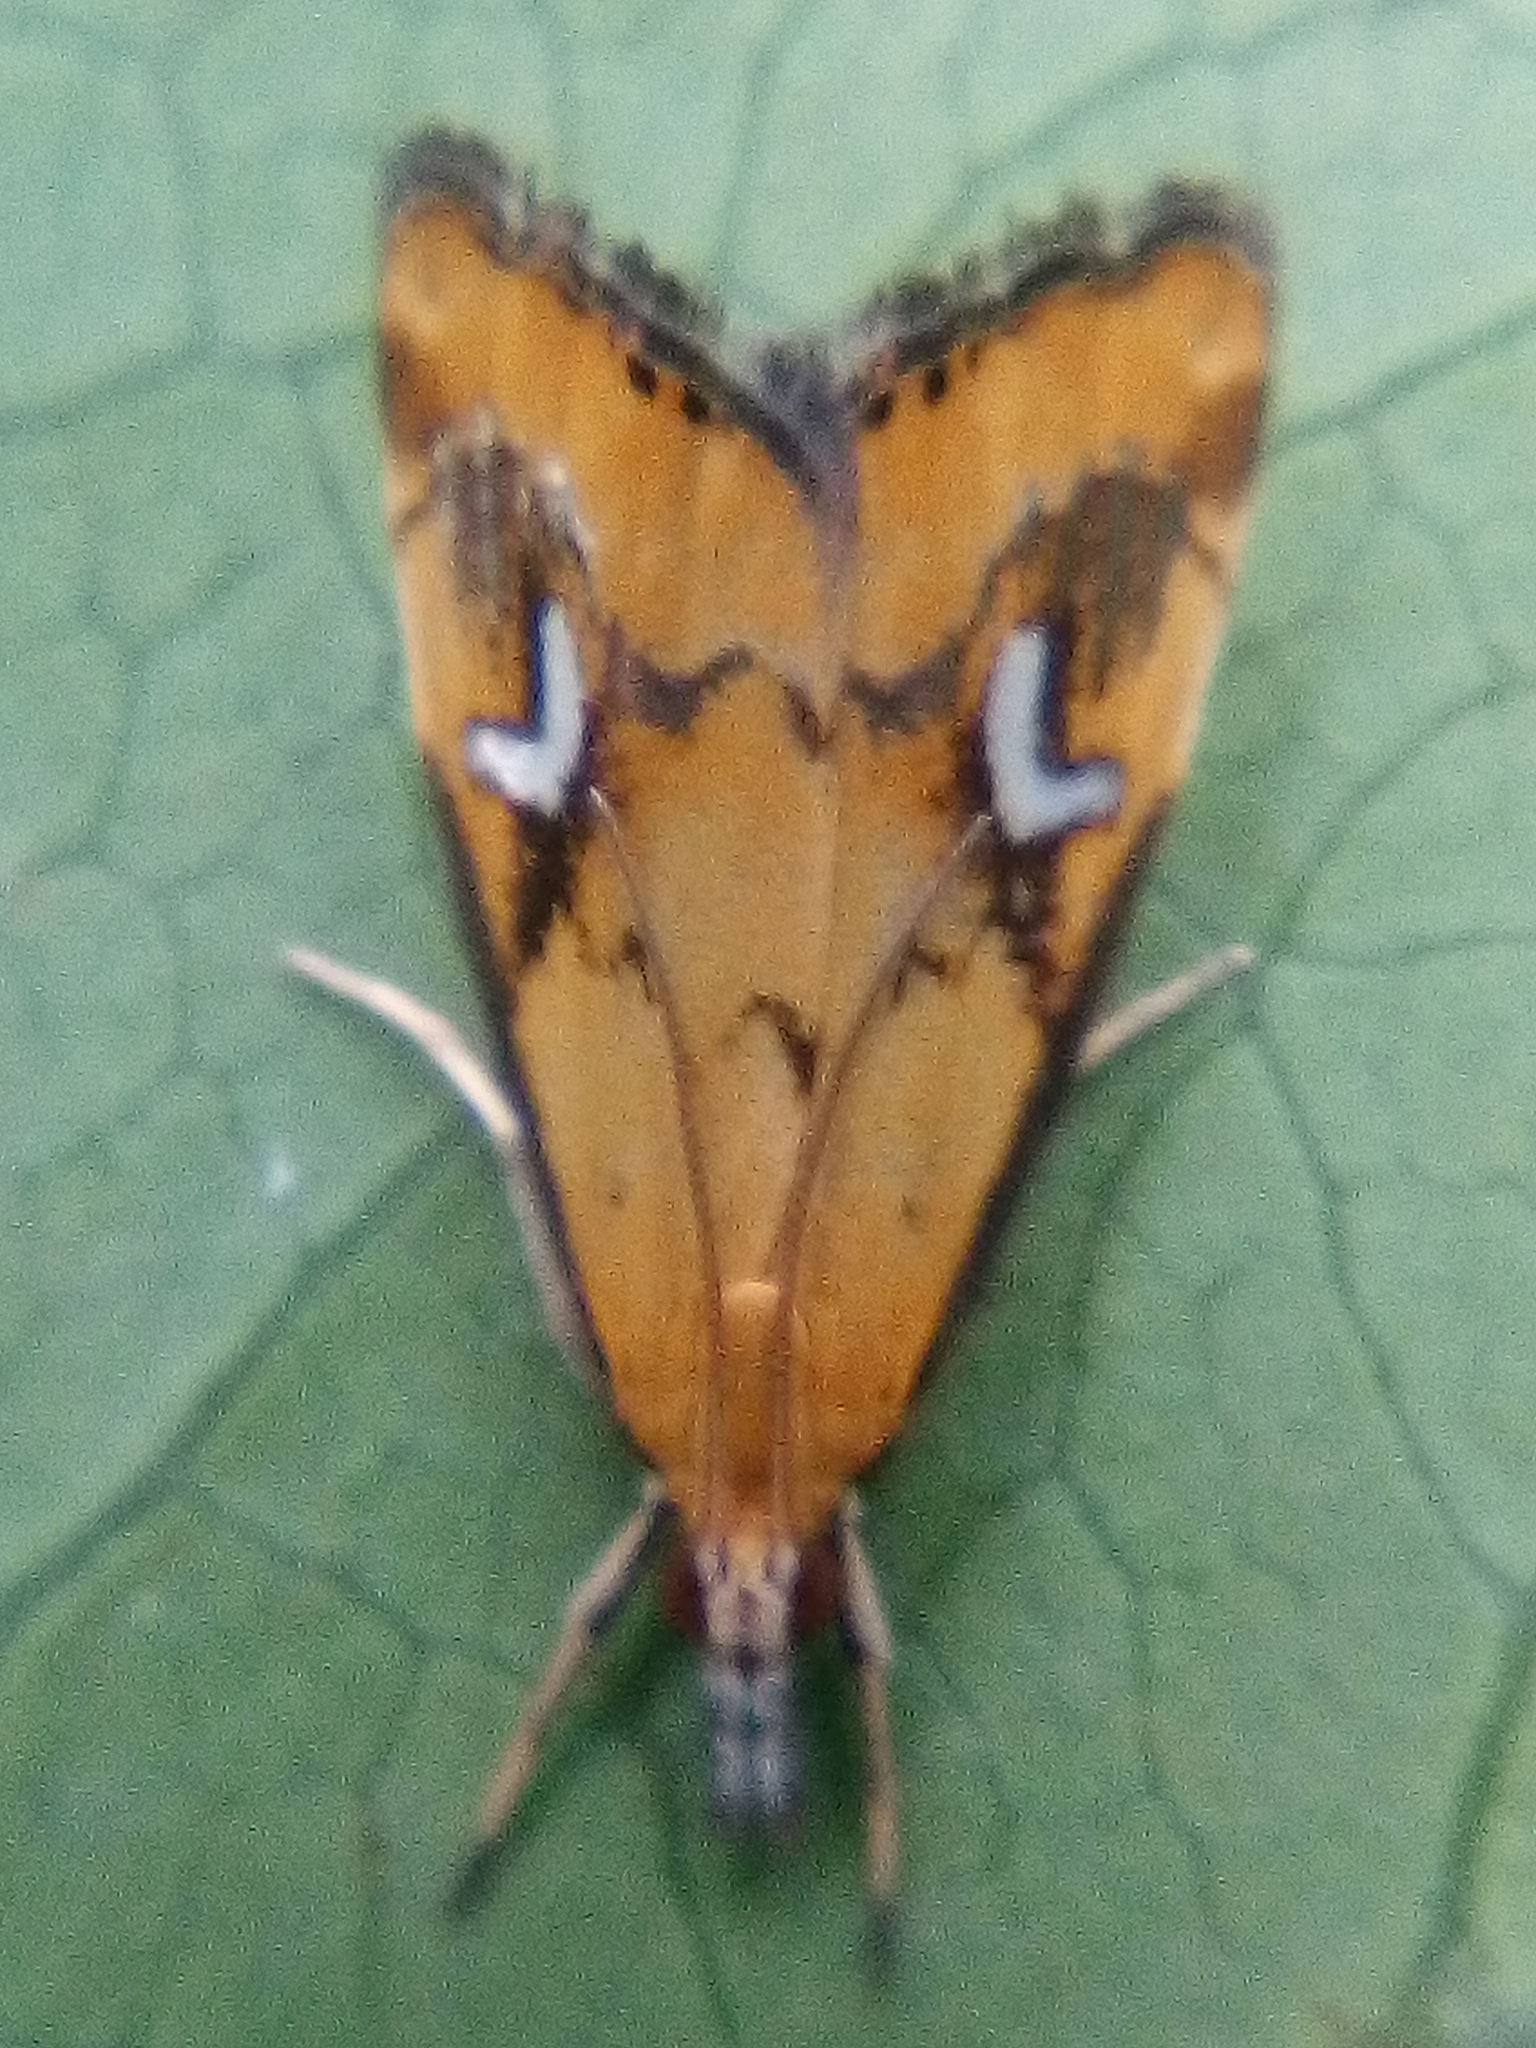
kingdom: Animalia
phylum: Arthropoda
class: Insecta
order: Lepidoptera
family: Crambidae
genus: Glaucocharis
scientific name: Glaucocharis lepidella
